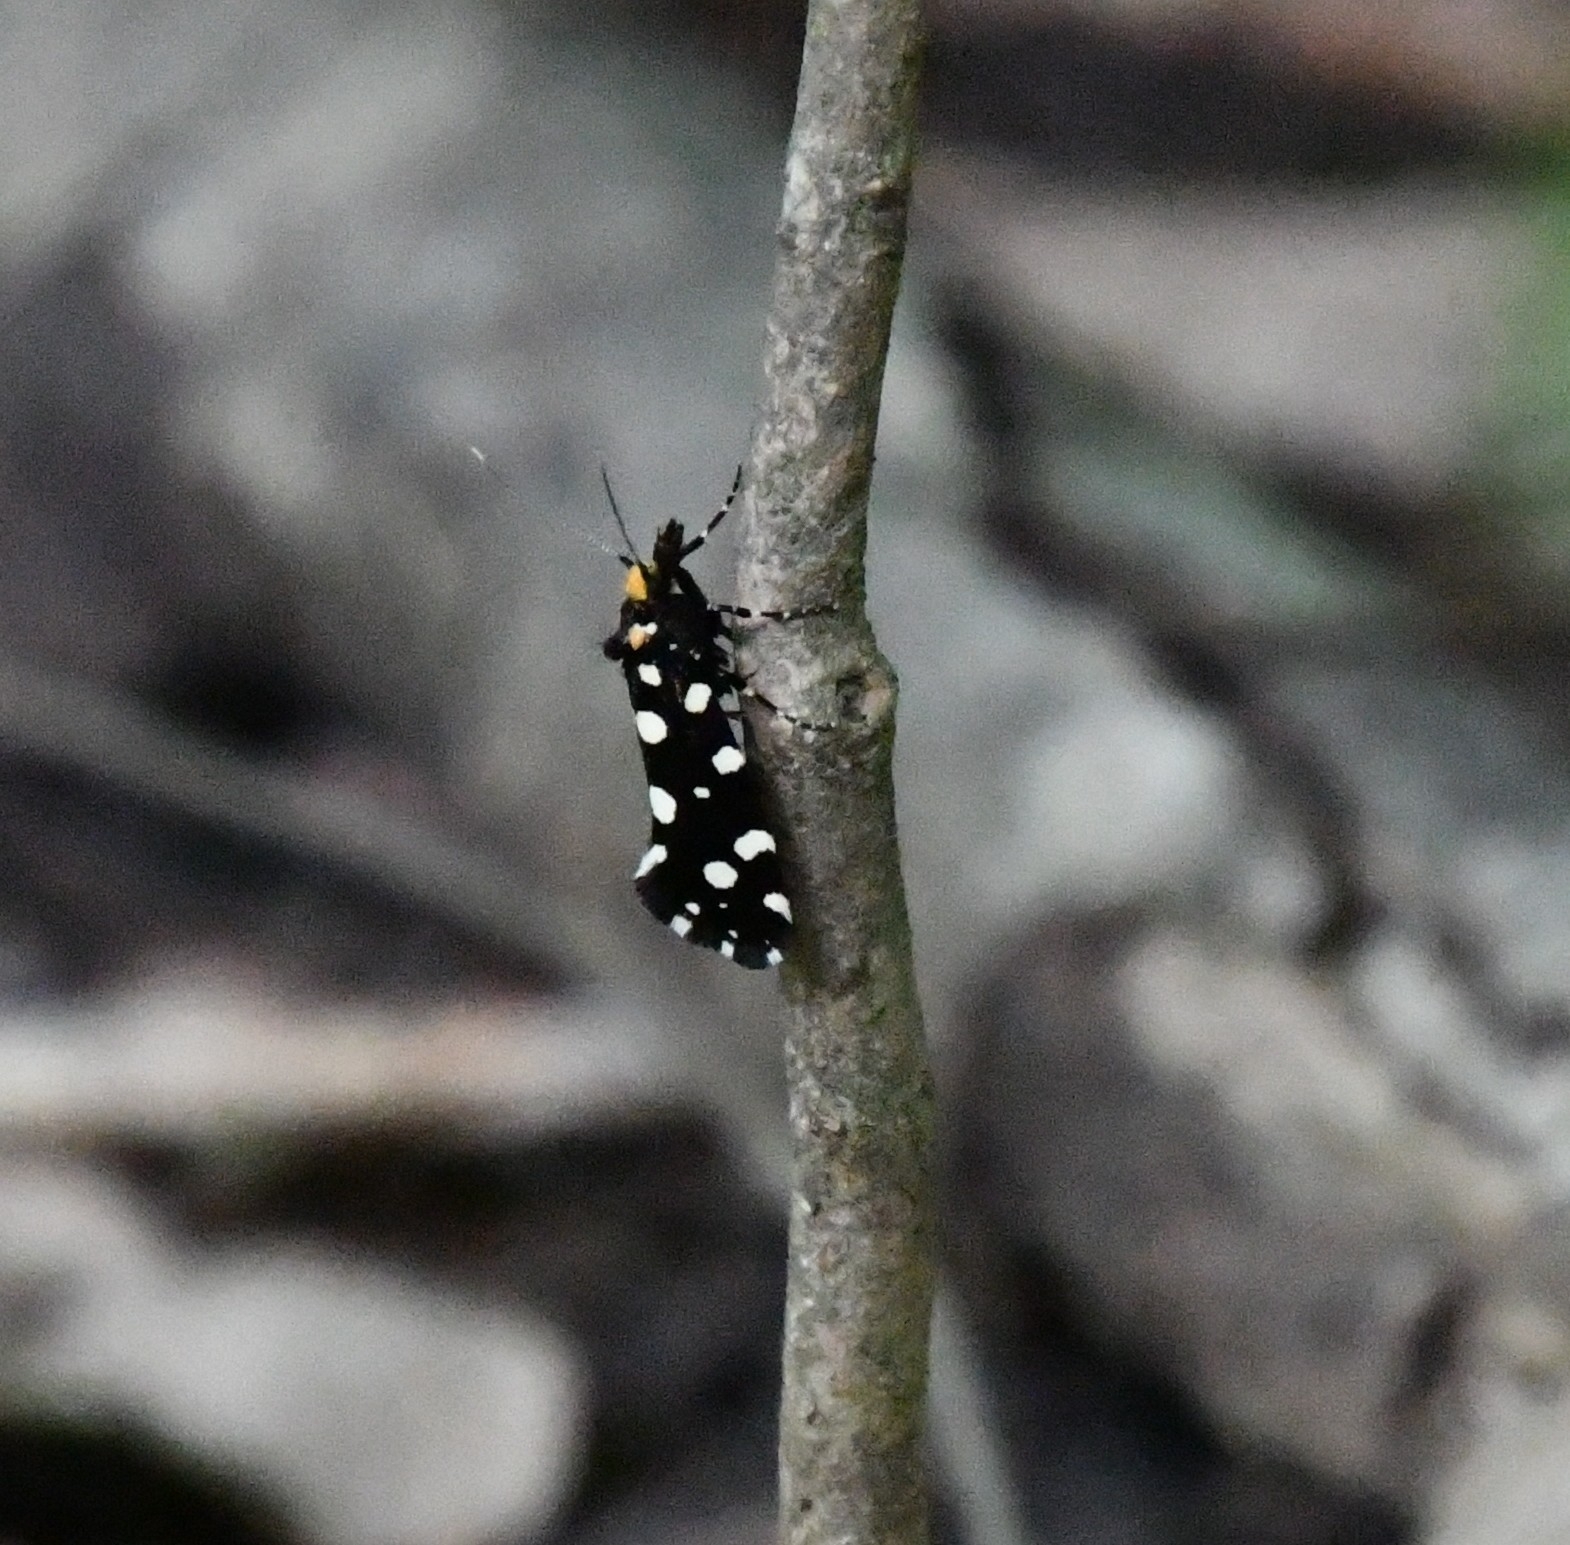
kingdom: Animalia
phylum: Arthropoda
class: Insecta
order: Lepidoptera
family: Tineidae
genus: Euplocamus
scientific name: Euplocamus anthracinalis
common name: Black clothes
